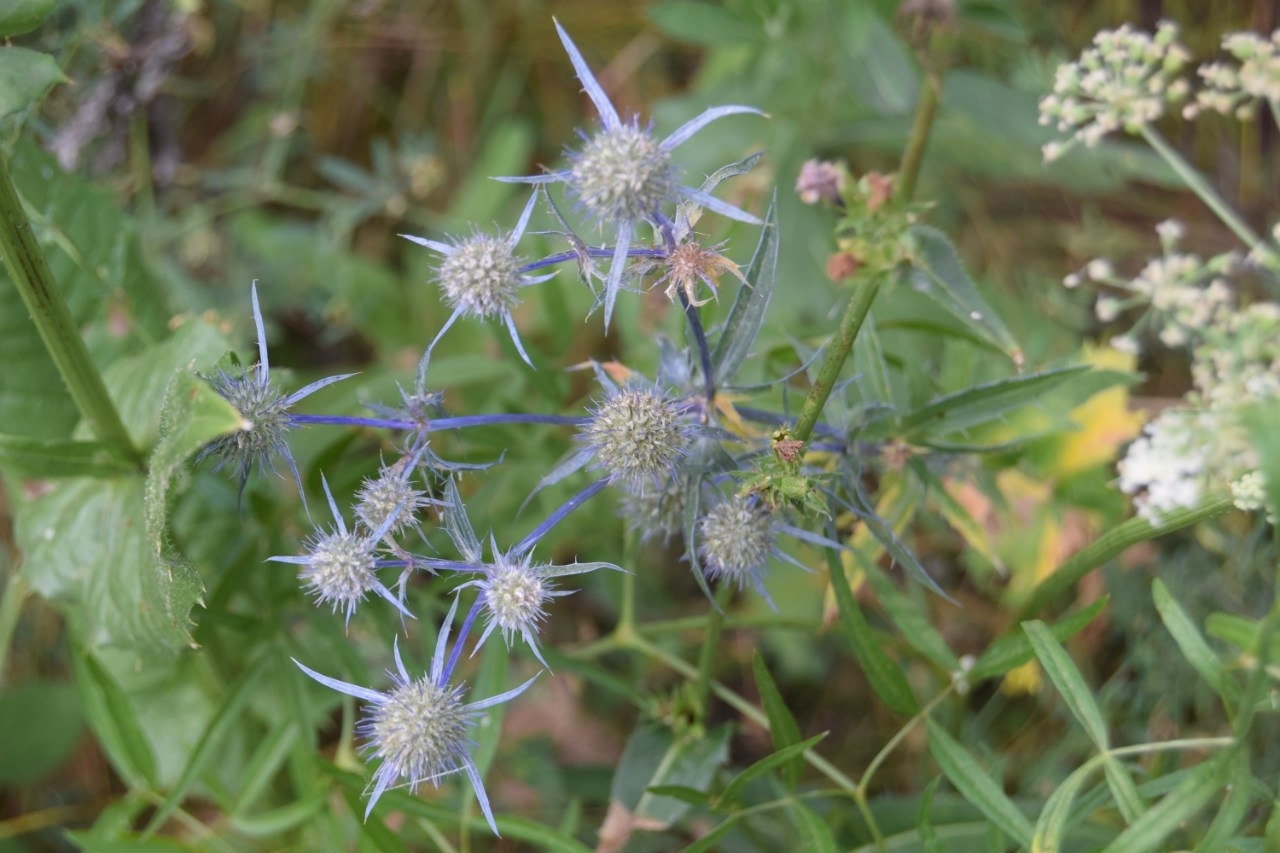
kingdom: Plantae
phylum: Tracheophyta
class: Magnoliopsida
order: Apiales
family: Apiaceae
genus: Eryngium
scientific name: Eryngium planum
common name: Blue eryngo
